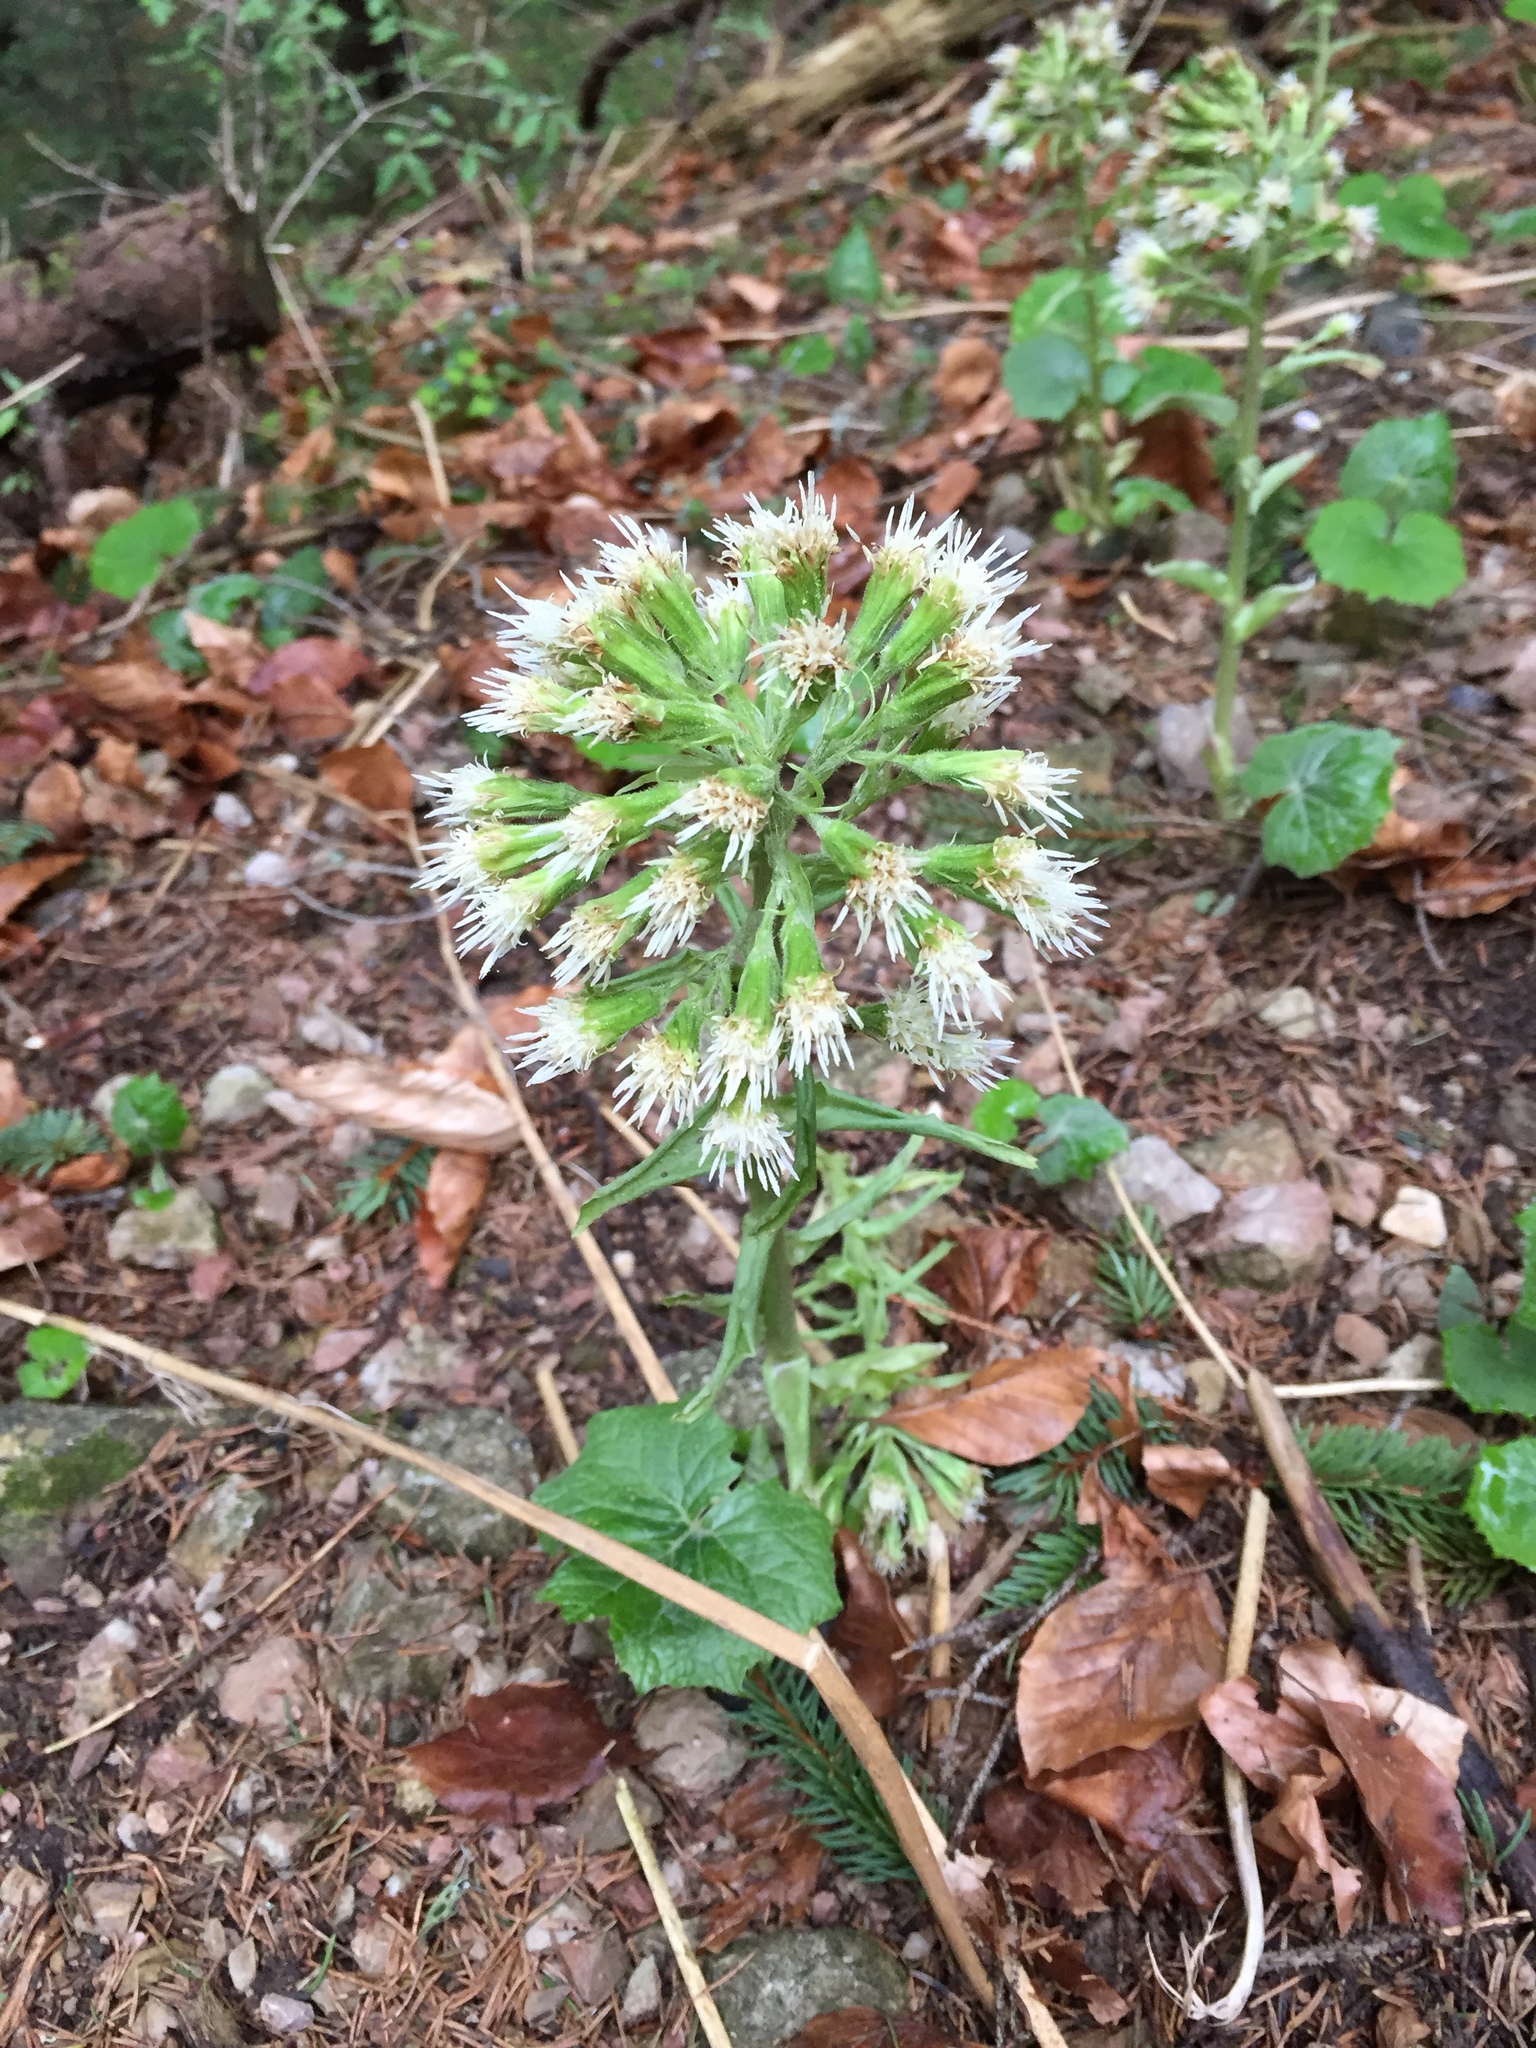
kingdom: Plantae
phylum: Tracheophyta
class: Magnoliopsida
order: Asterales
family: Asteraceae
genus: Petasites
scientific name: Petasites albus
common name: White butterbur
